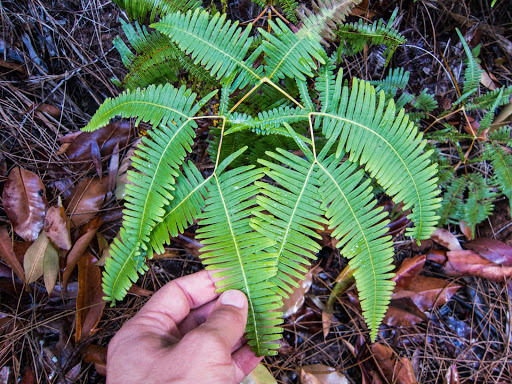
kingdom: Plantae
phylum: Tracheophyta
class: Polypodiopsida
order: Gleicheniales
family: Gleicheniaceae
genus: Dicranopteris
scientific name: Dicranopteris linearis
